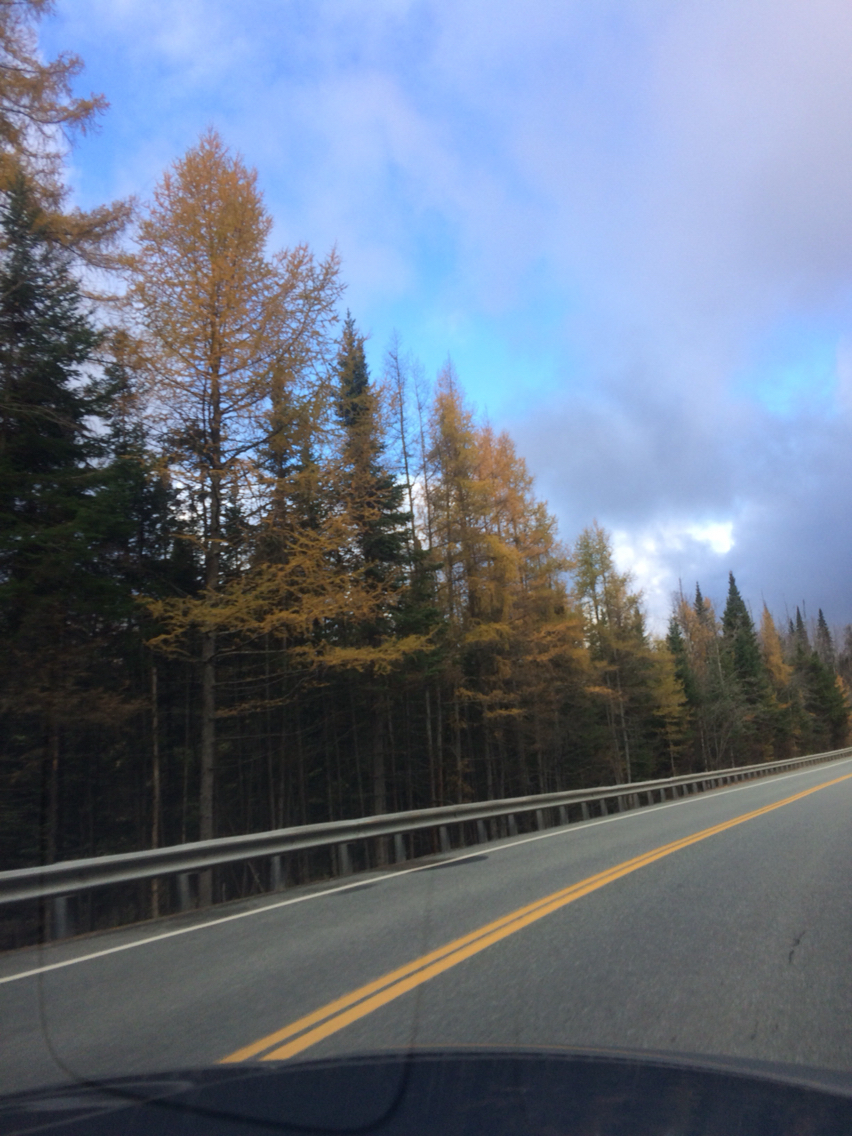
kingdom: Plantae
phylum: Tracheophyta
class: Pinopsida
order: Pinales
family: Pinaceae
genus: Larix
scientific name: Larix laricina
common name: American larch
